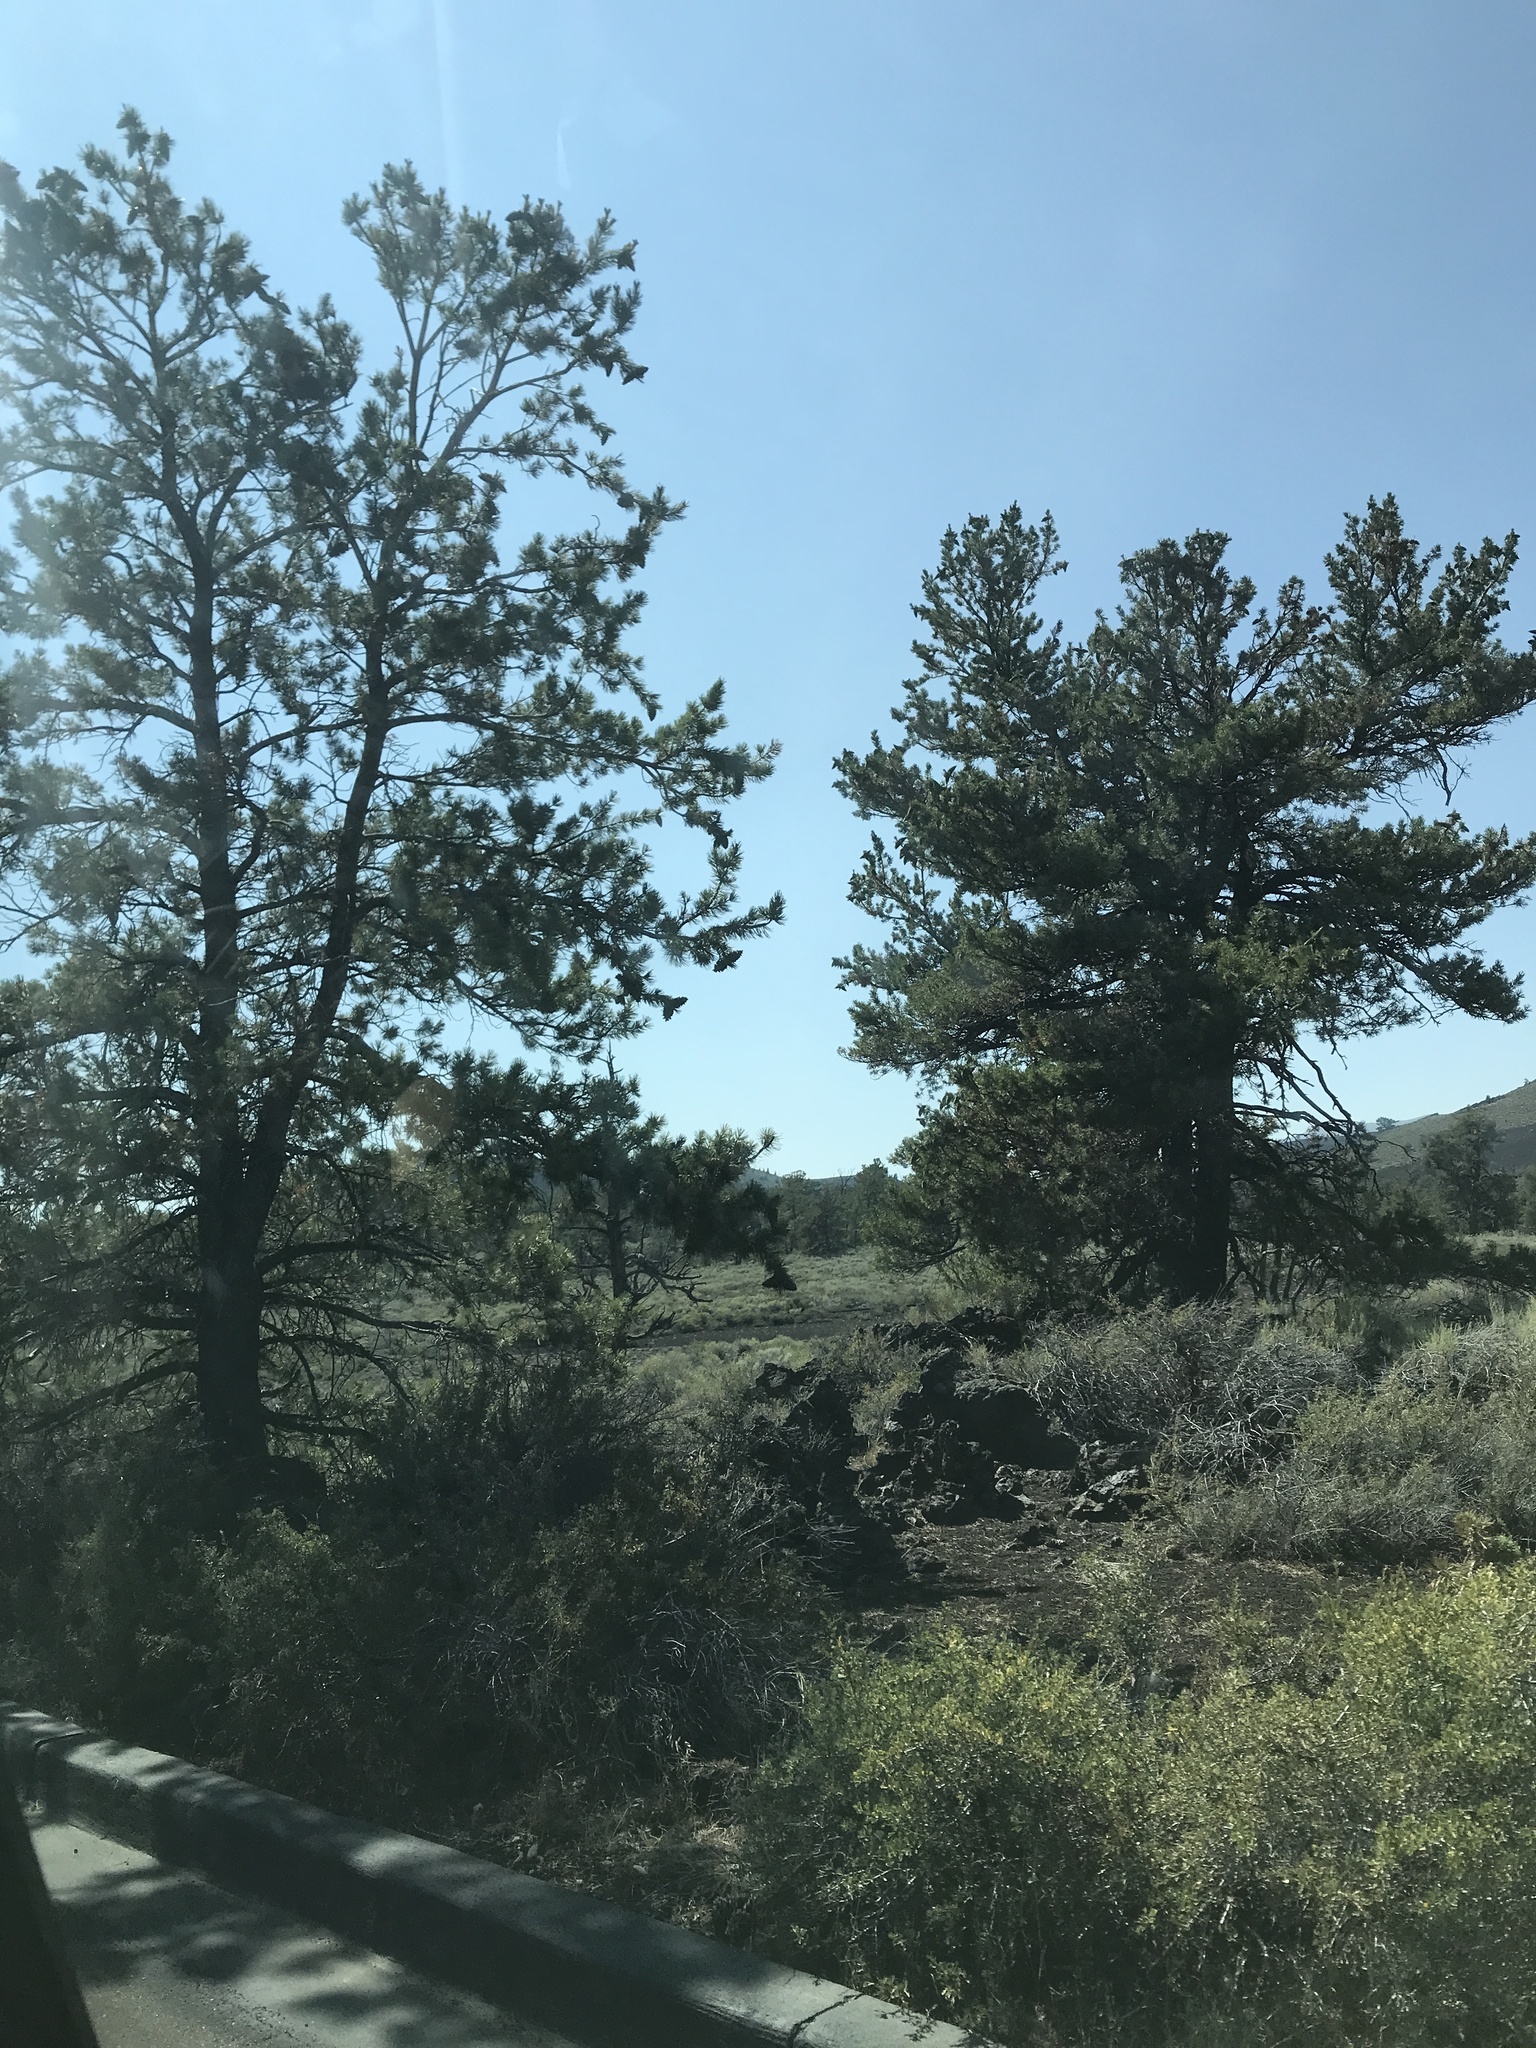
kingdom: Plantae
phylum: Tracheophyta
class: Pinopsida
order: Pinales
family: Pinaceae
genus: Pinus
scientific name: Pinus flexilis
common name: Limber pine
